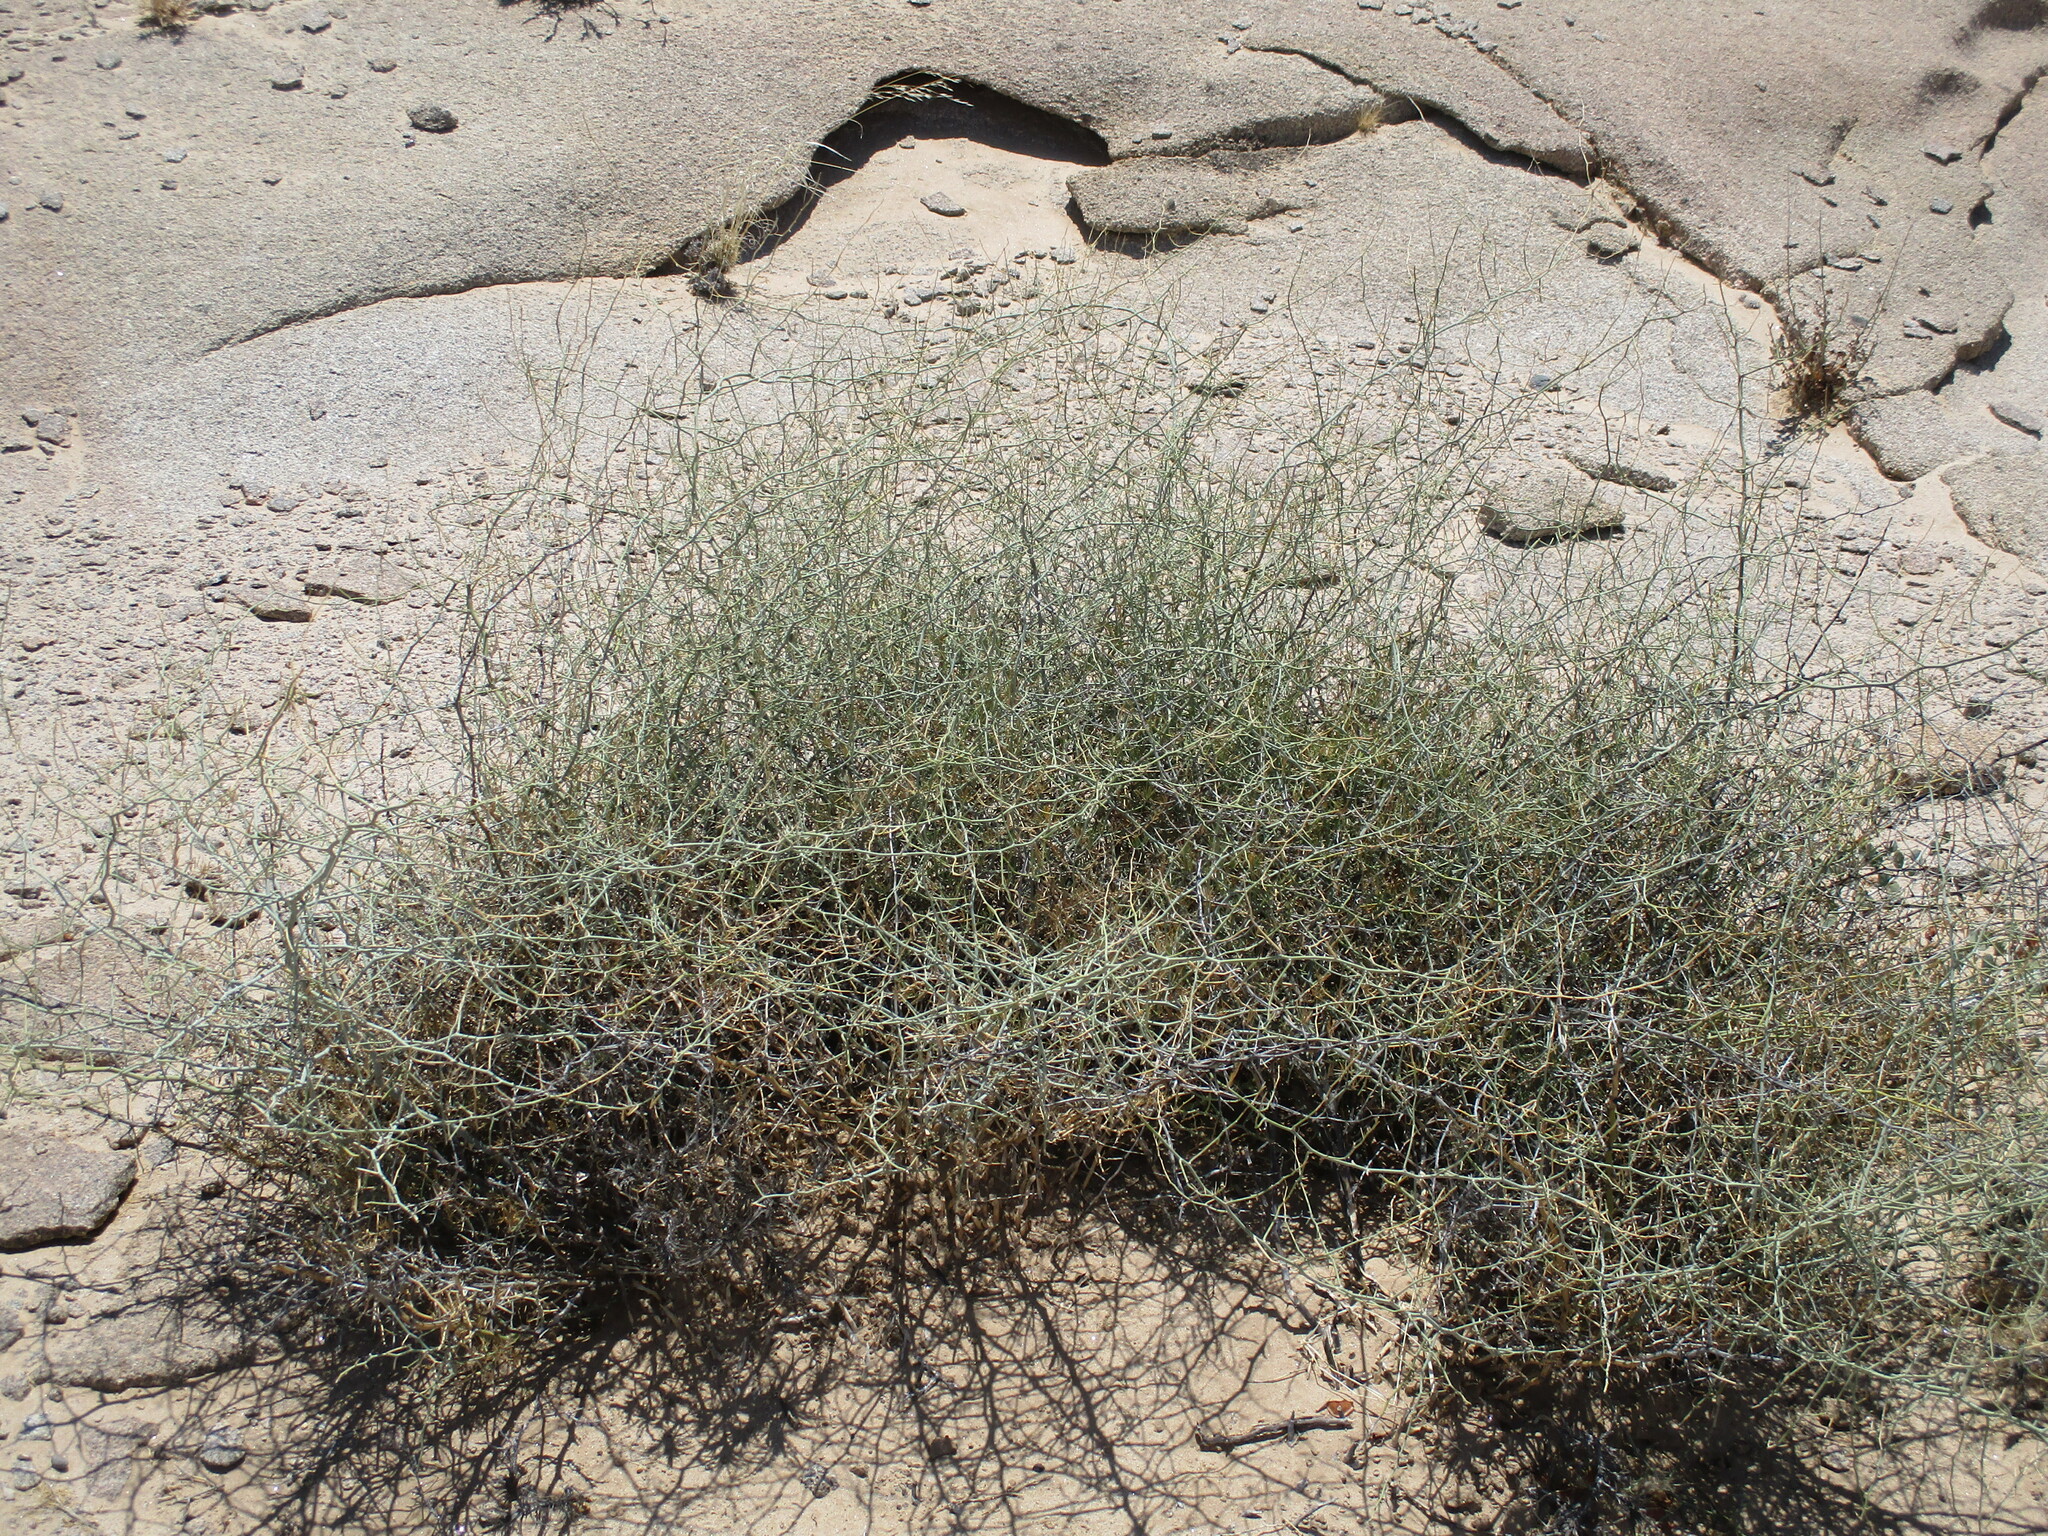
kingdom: Plantae
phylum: Tracheophyta
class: Liliopsida
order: Asparagales
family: Asparagaceae
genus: Asparagus
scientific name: Asparagus pearsonii
